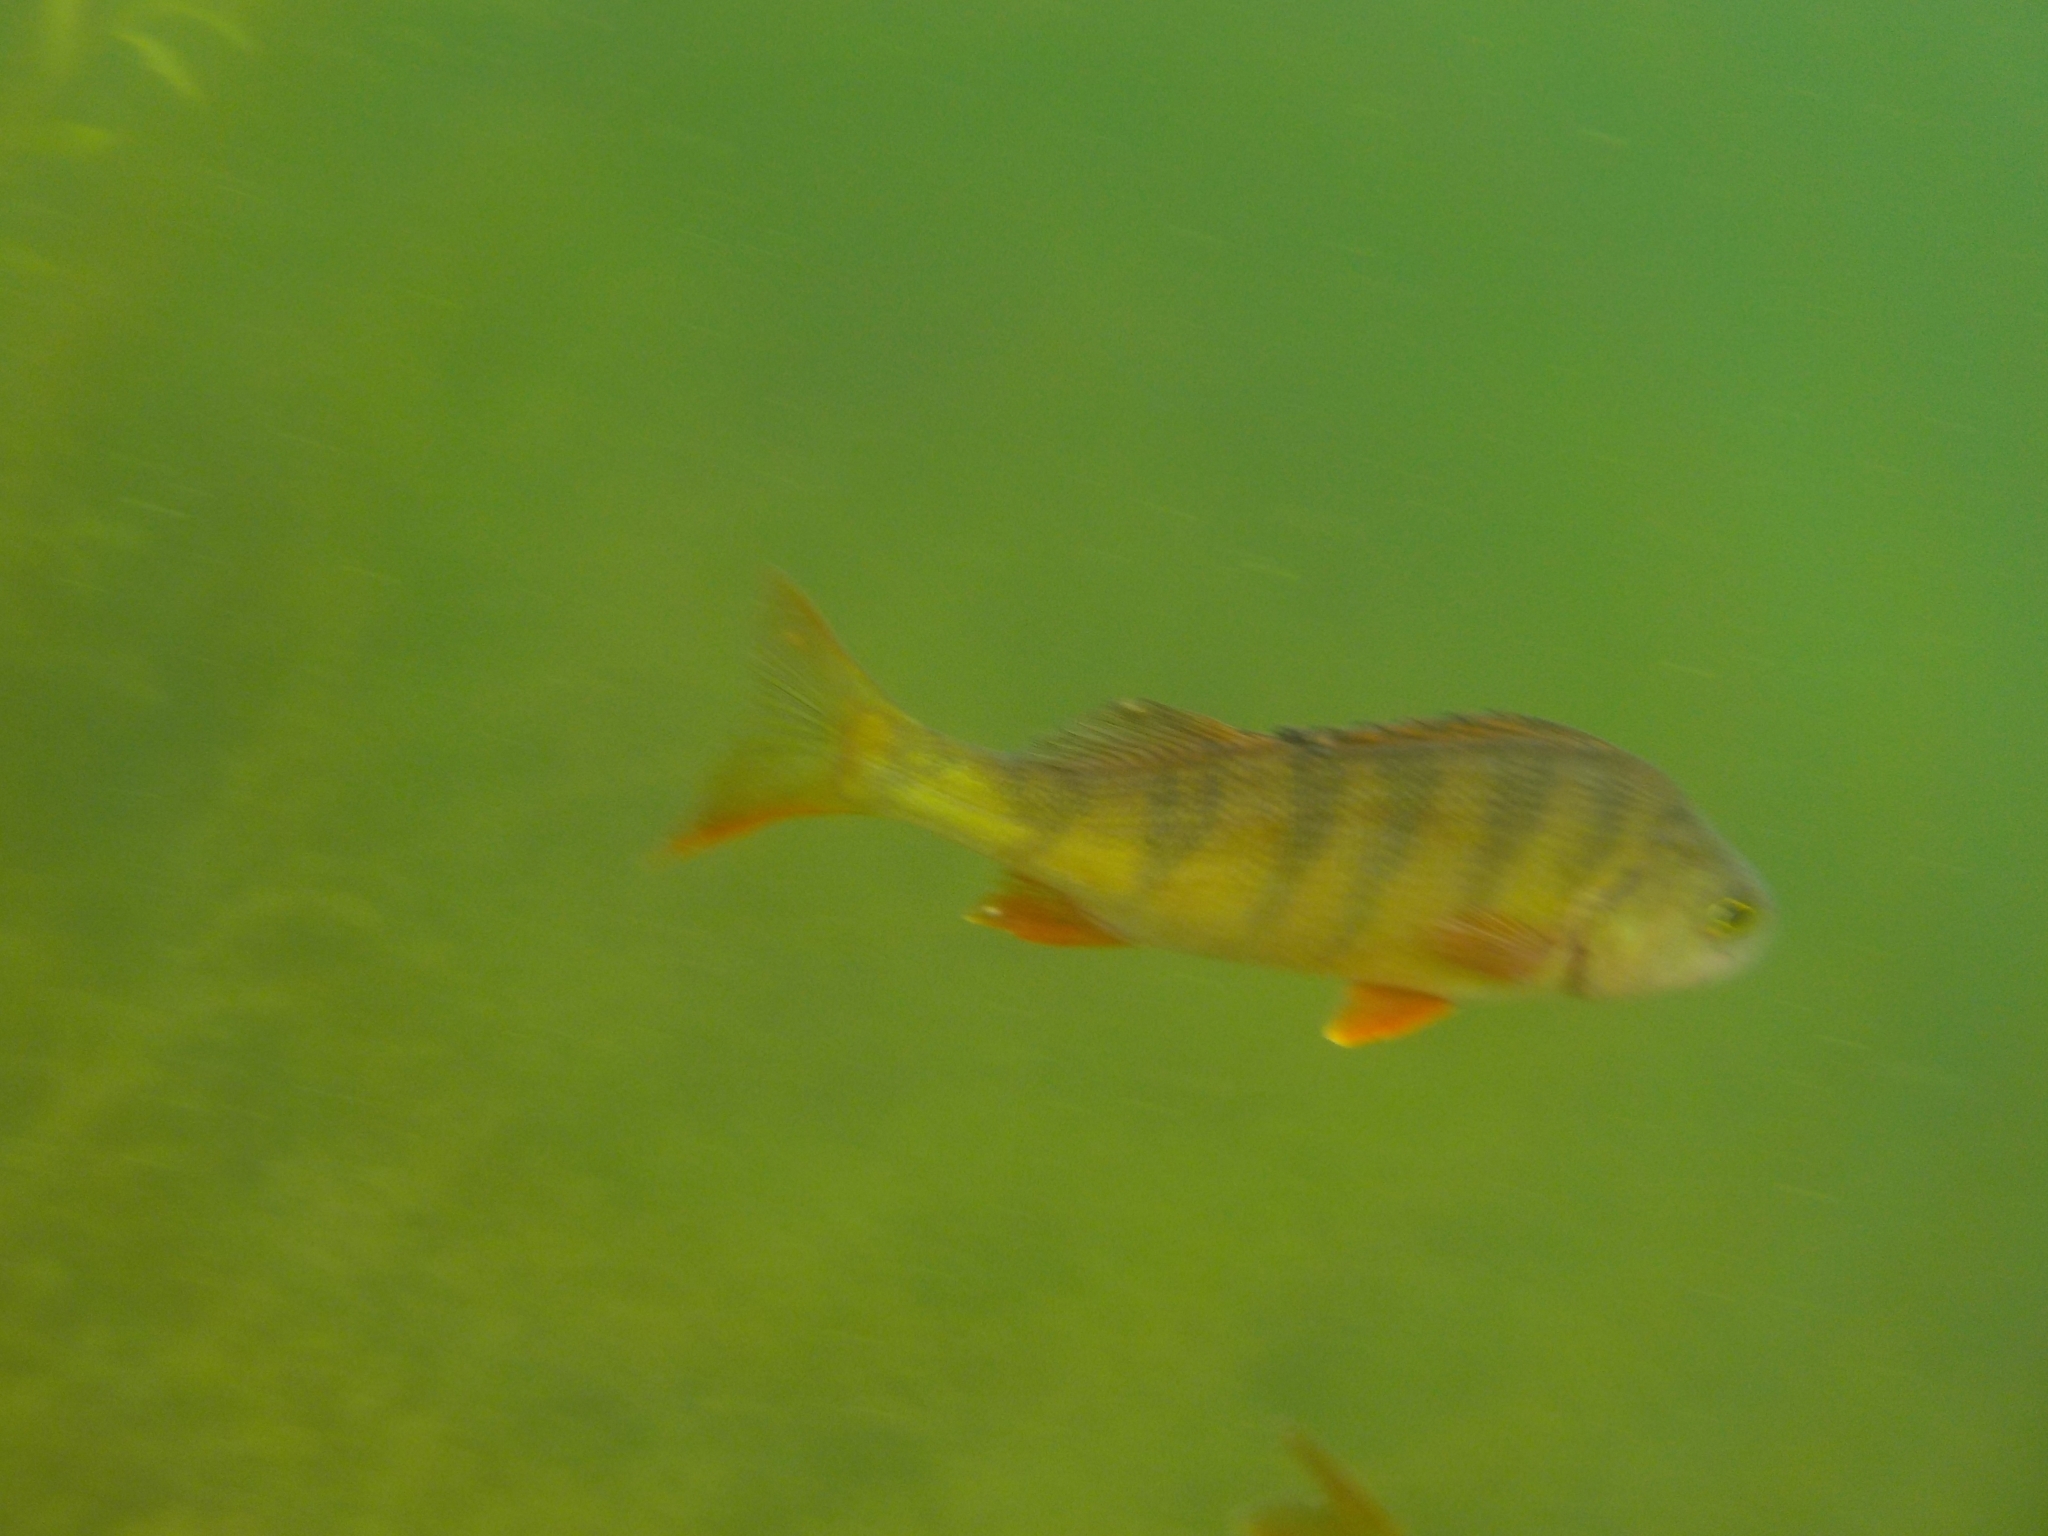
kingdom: Animalia
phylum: Chordata
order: Perciformes
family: Percidae
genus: Perca
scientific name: Perca fluviatilis
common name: Perch
